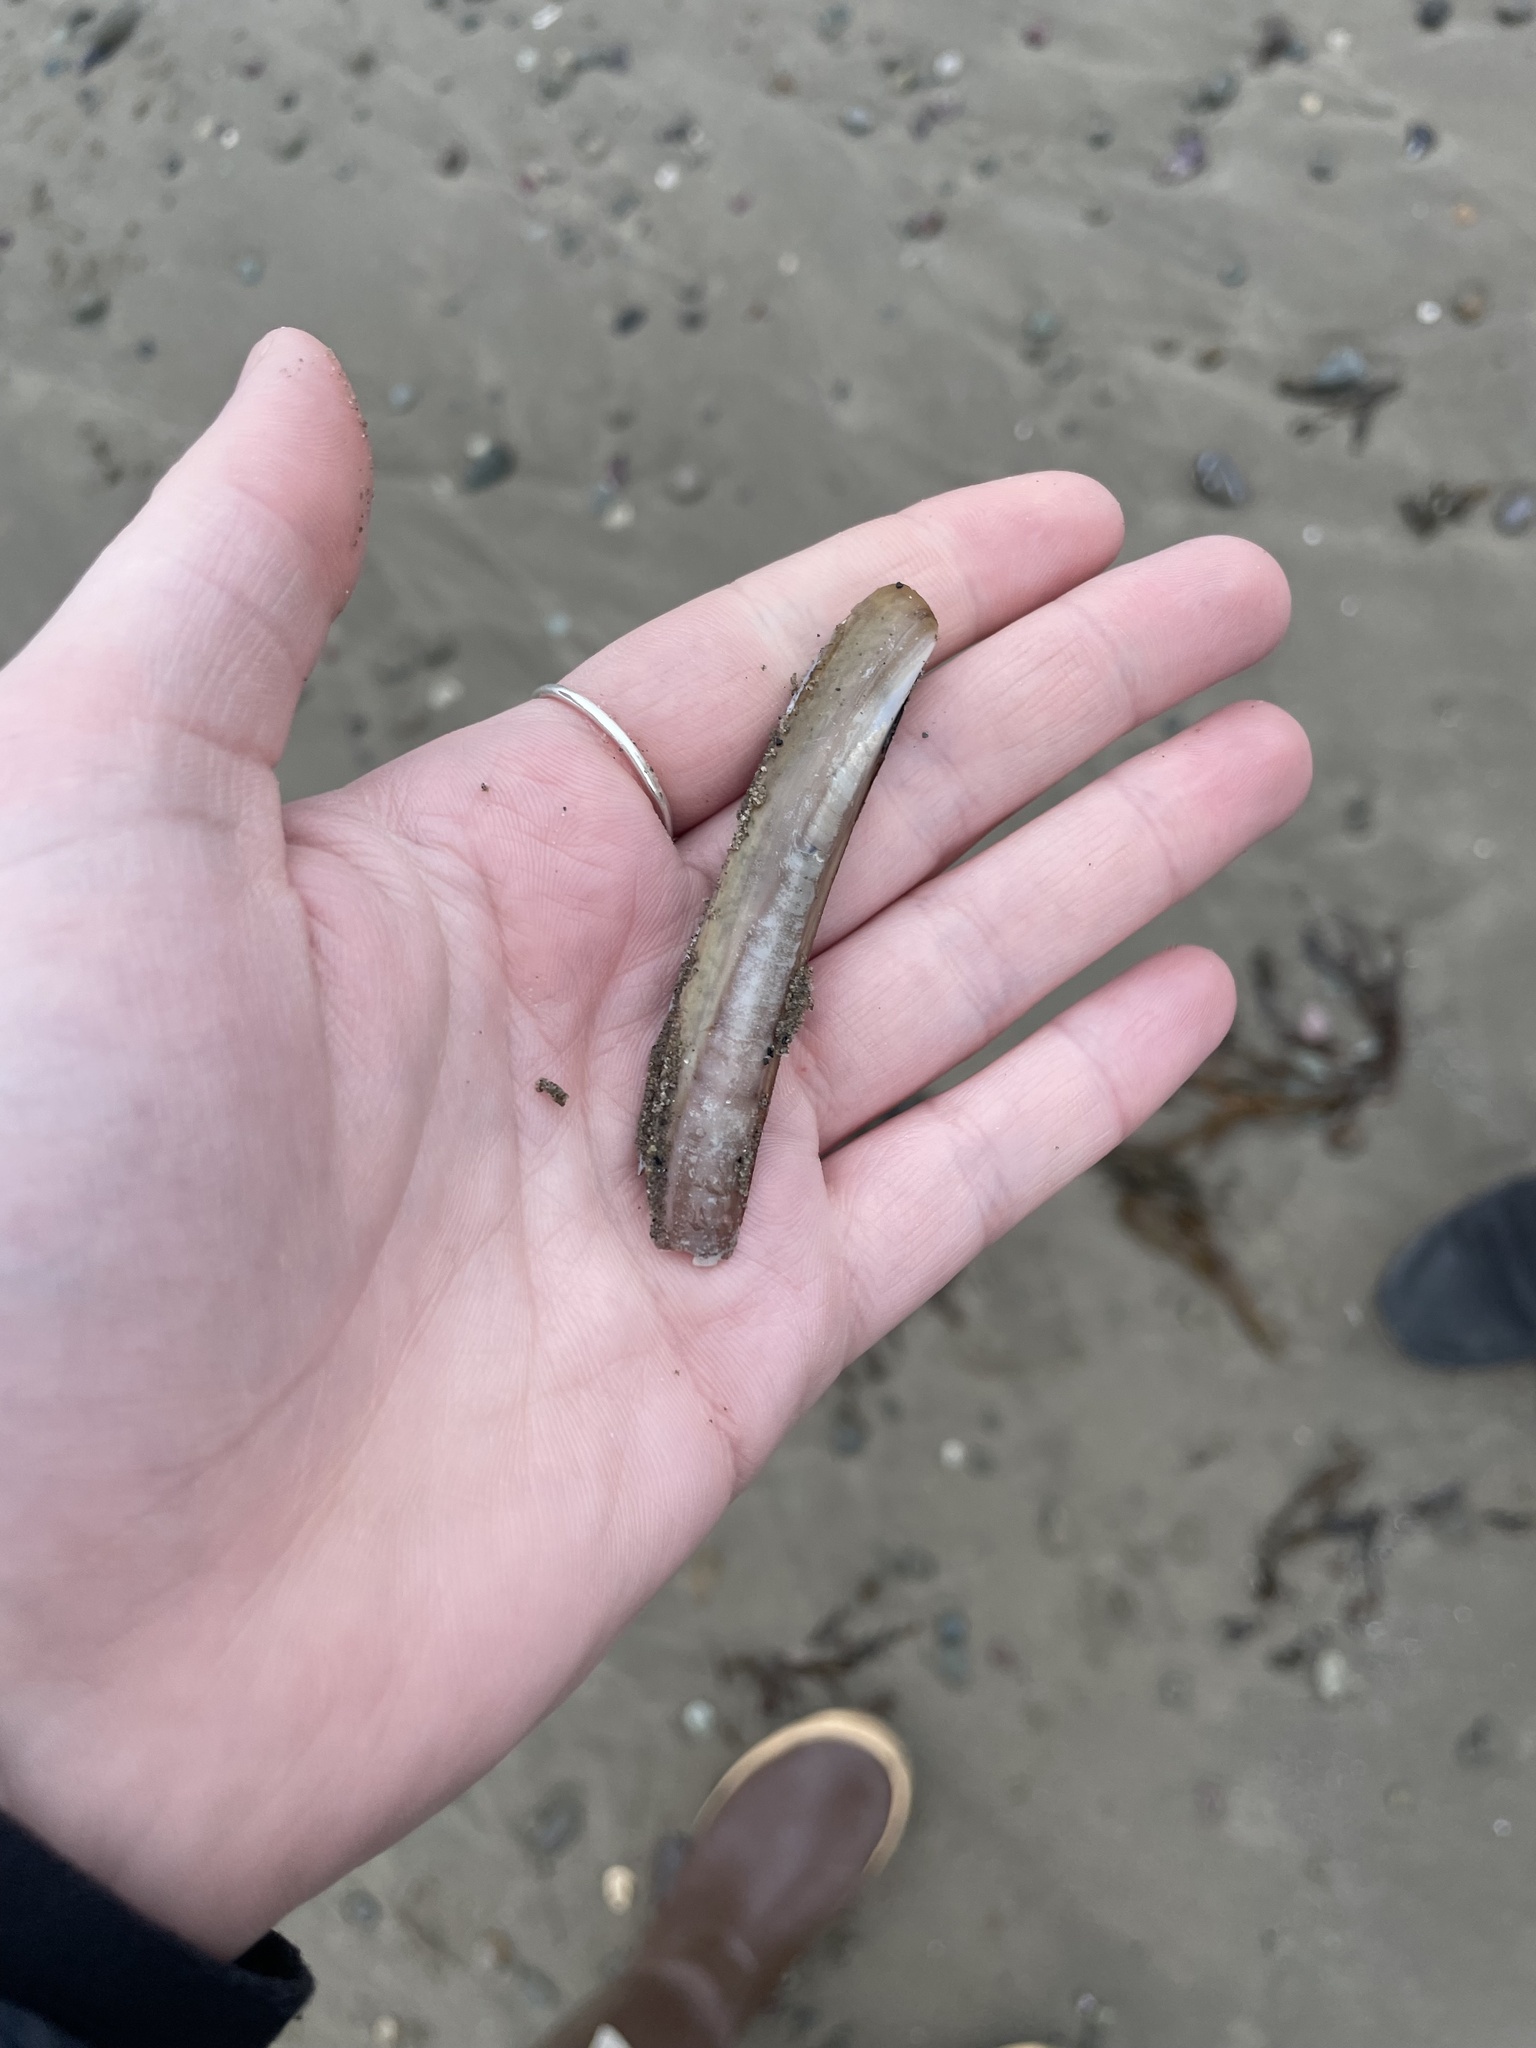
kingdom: Animalia
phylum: Mollusca
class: Bivalvia
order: Adapedonta
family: Pharidae
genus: Ensis
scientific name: Ensis leei
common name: American jack knife clam
